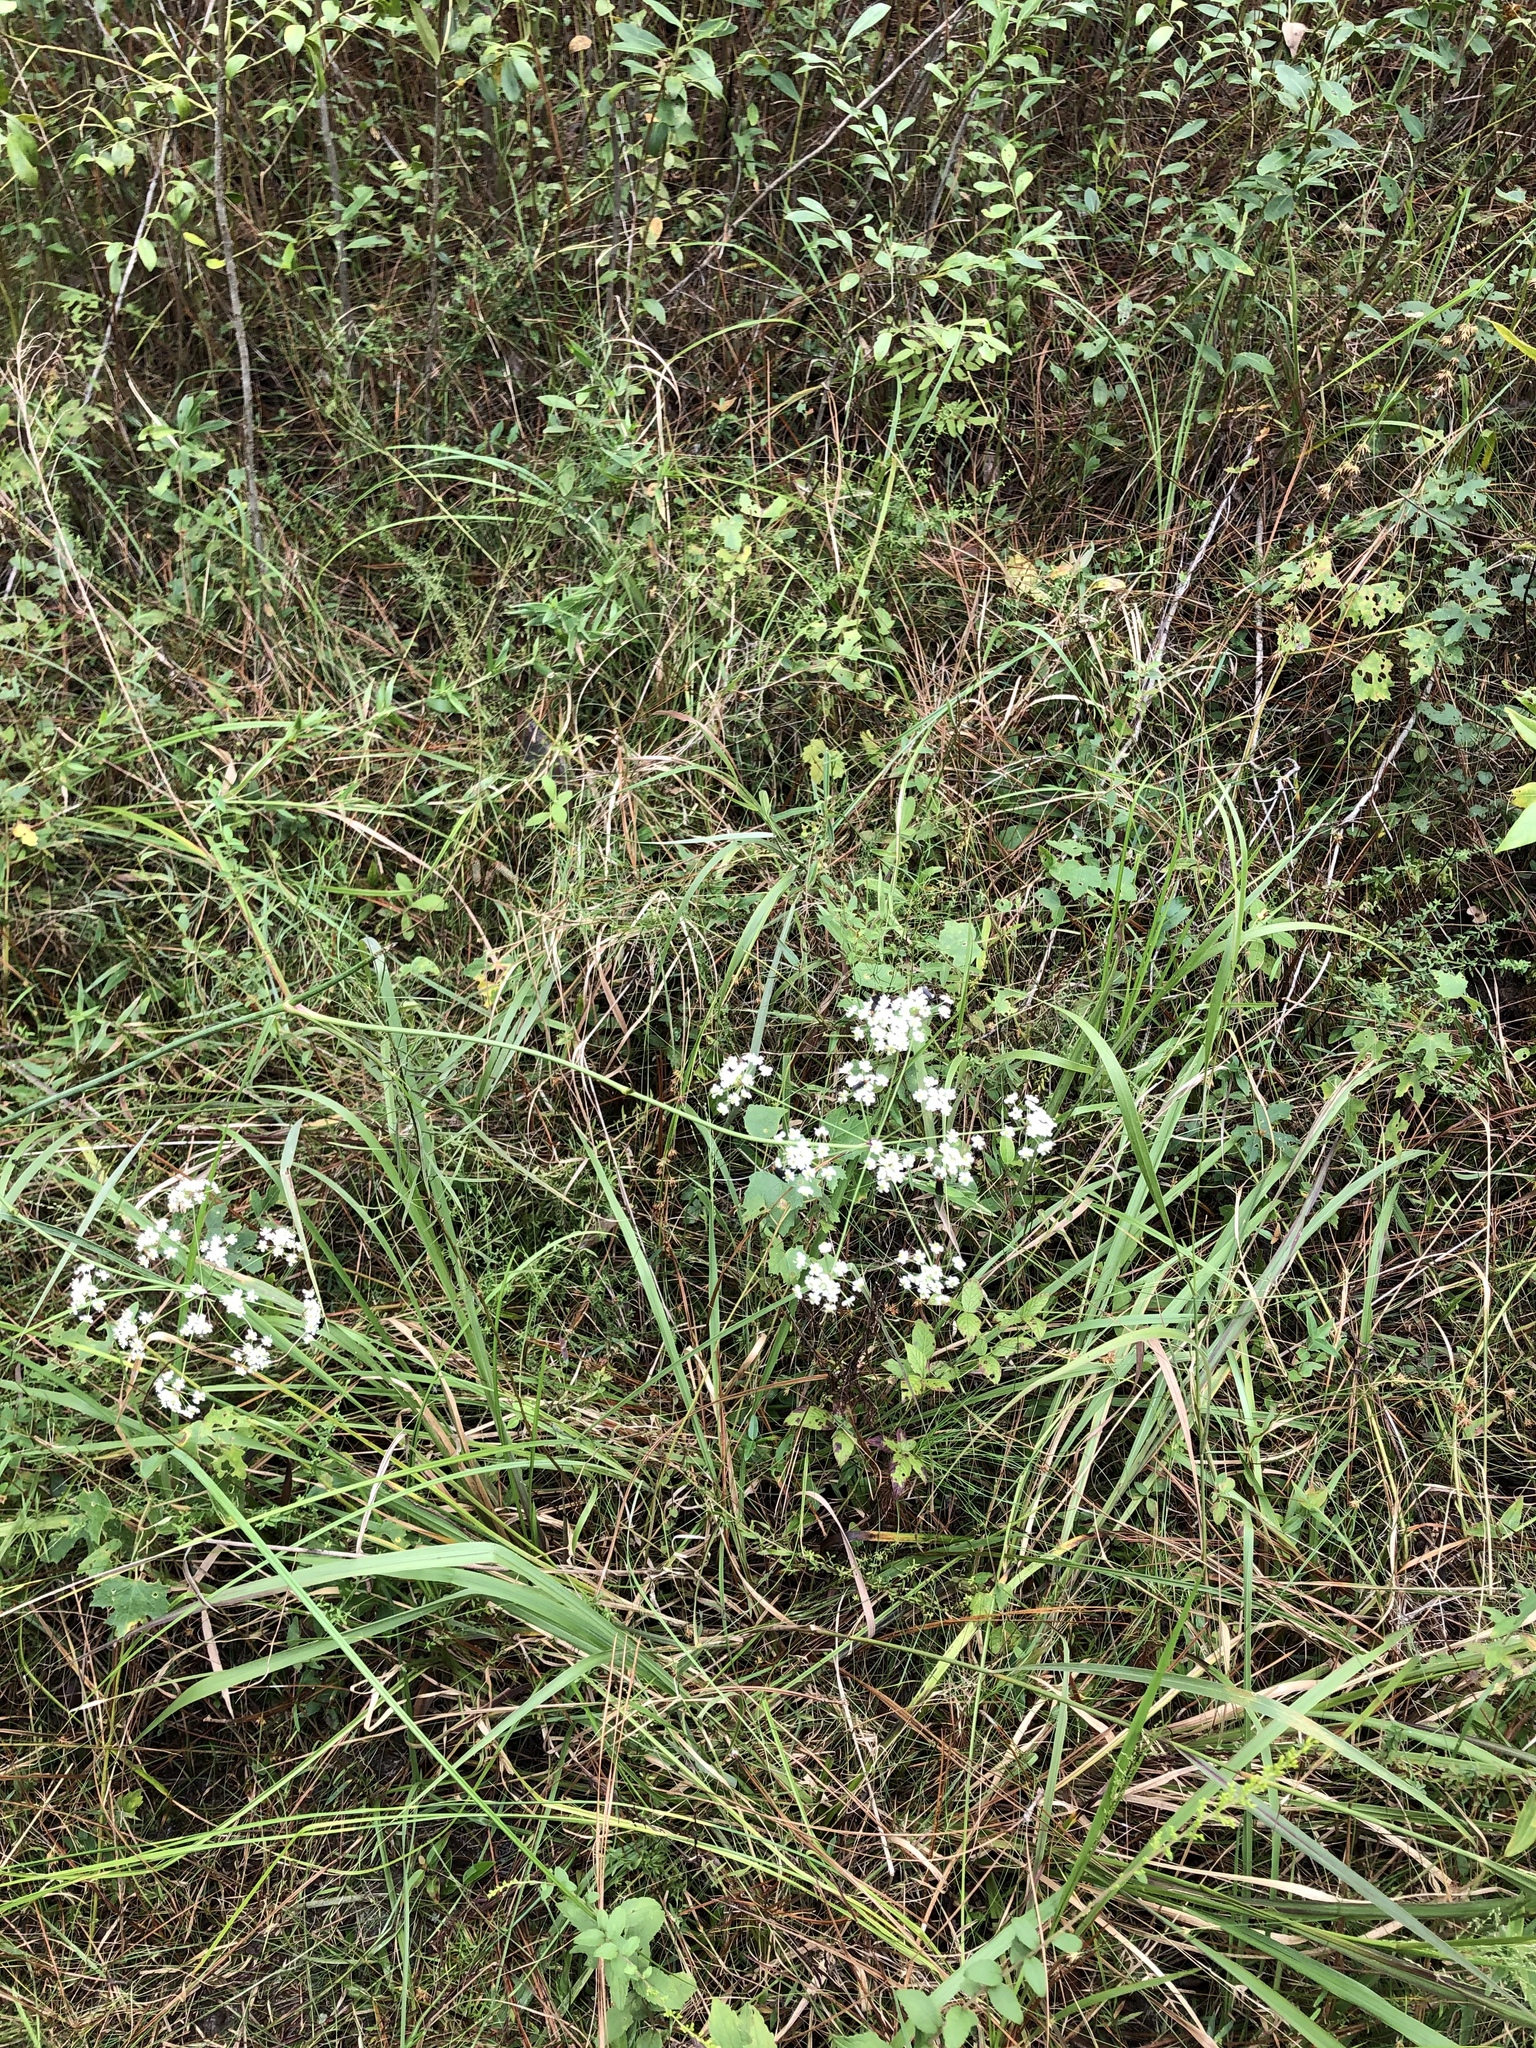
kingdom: Plantae
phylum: Tracheophyta
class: Magnoliopsida
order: Apiales
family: Apiaceae
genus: Oxypolis
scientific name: Oxypolis rigidior
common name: Cowbane
